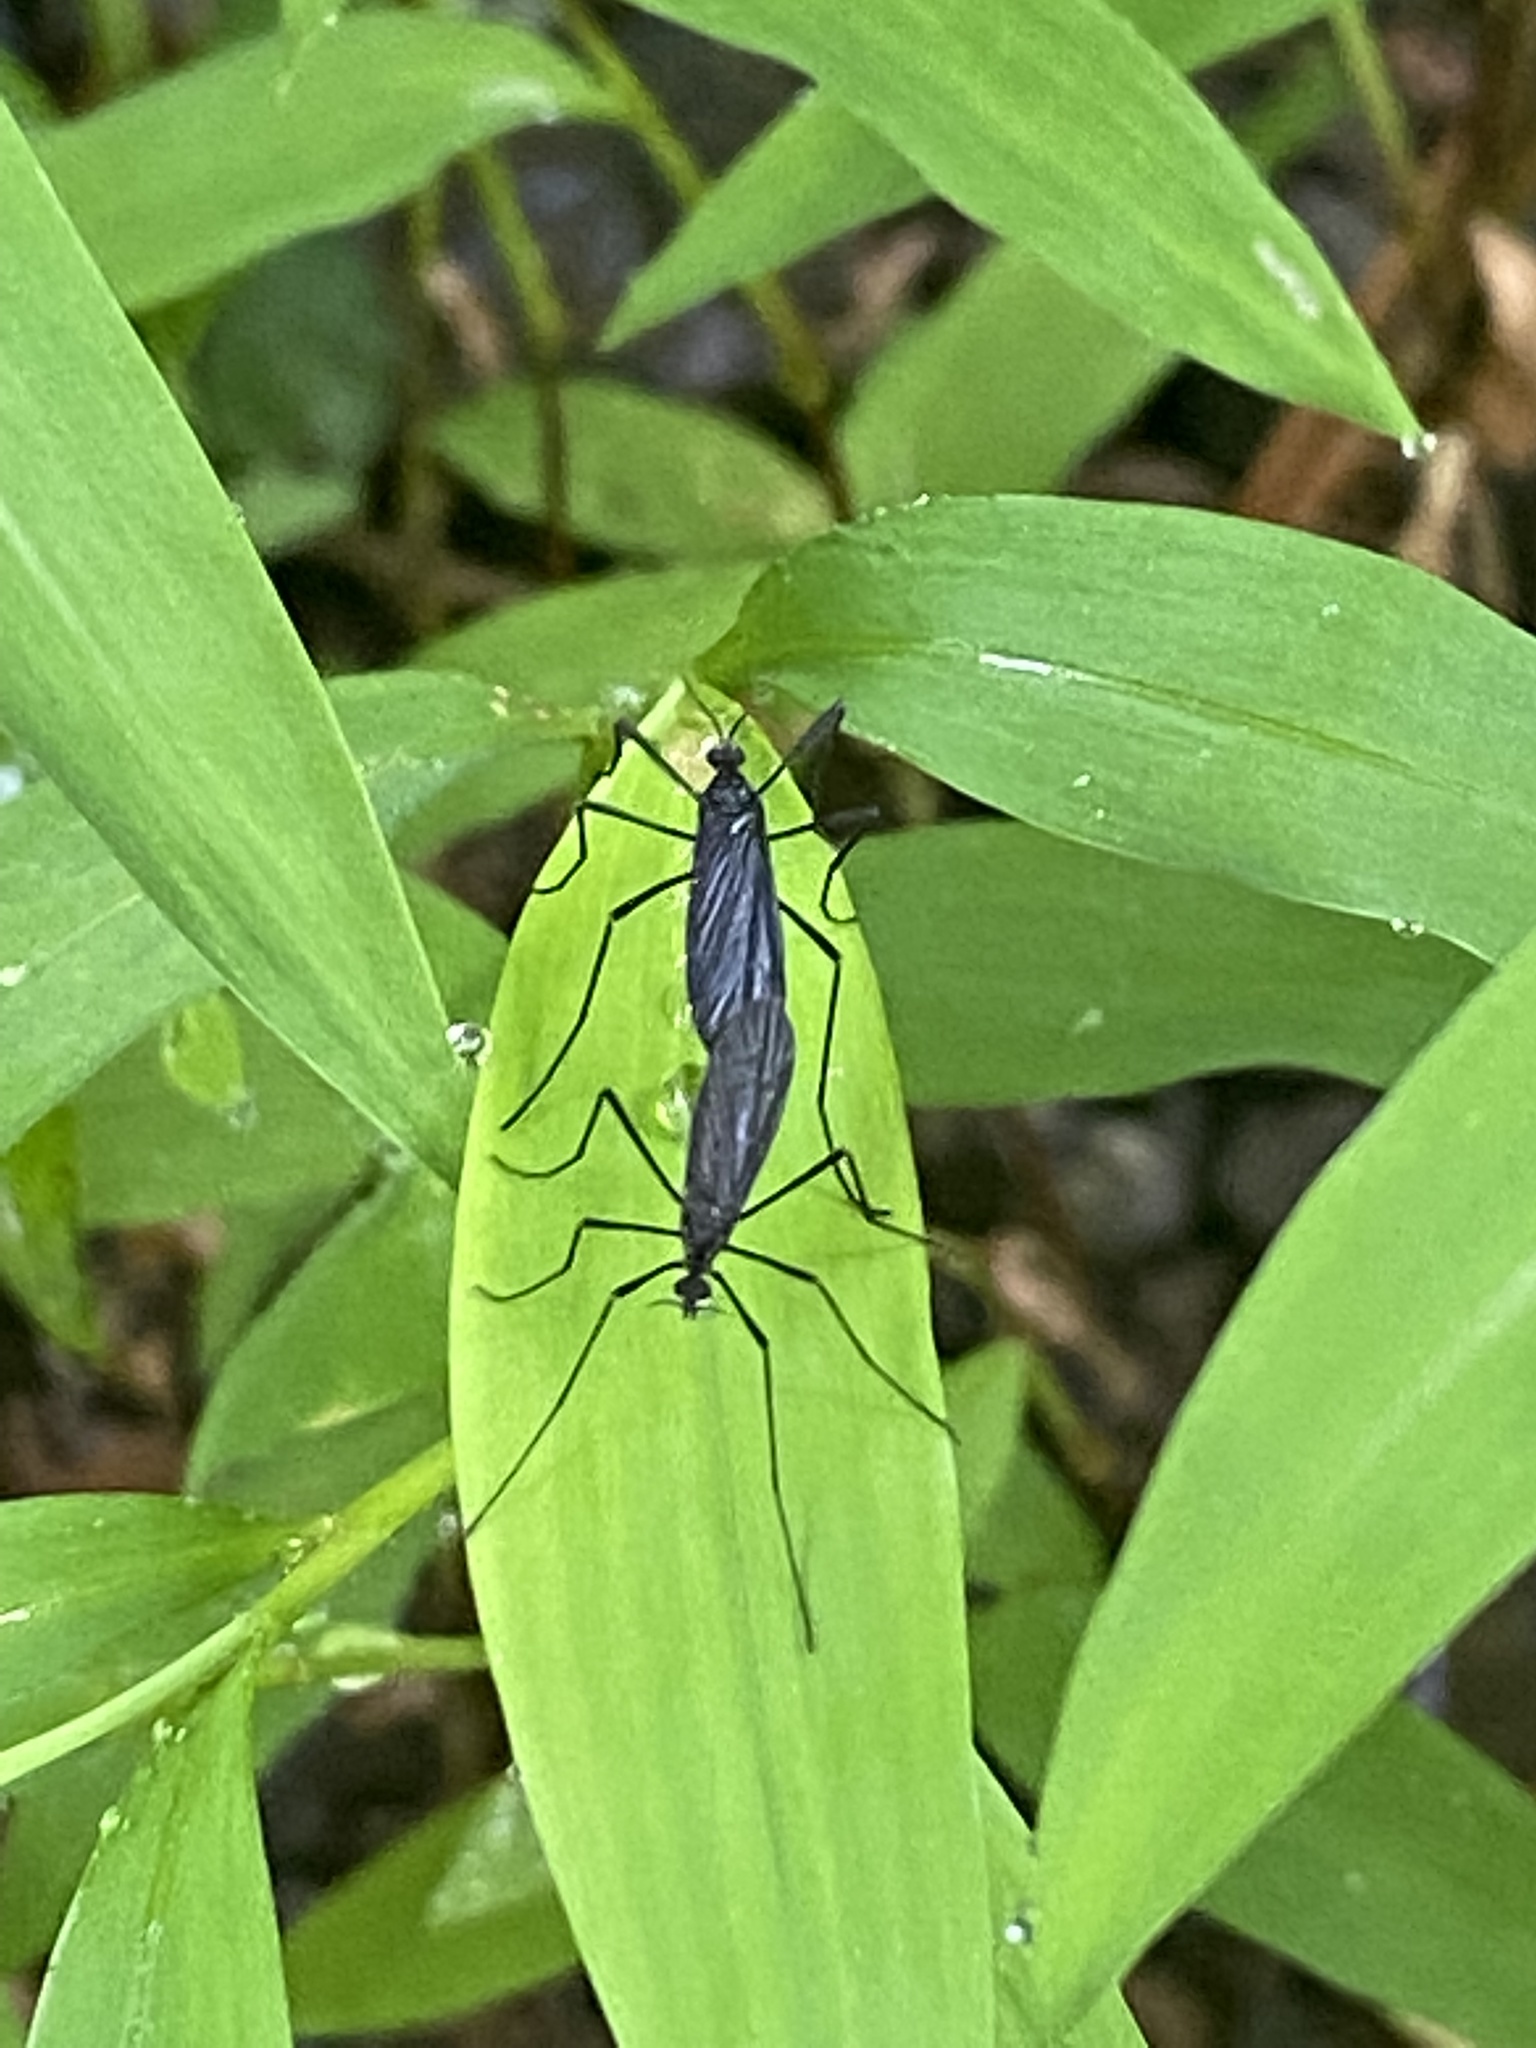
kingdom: Animalia
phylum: Arthropoda
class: Insecta
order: Diptera
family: Limoniidae
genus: Eugnophomyia
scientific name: Eugnophomyia luctuosa
